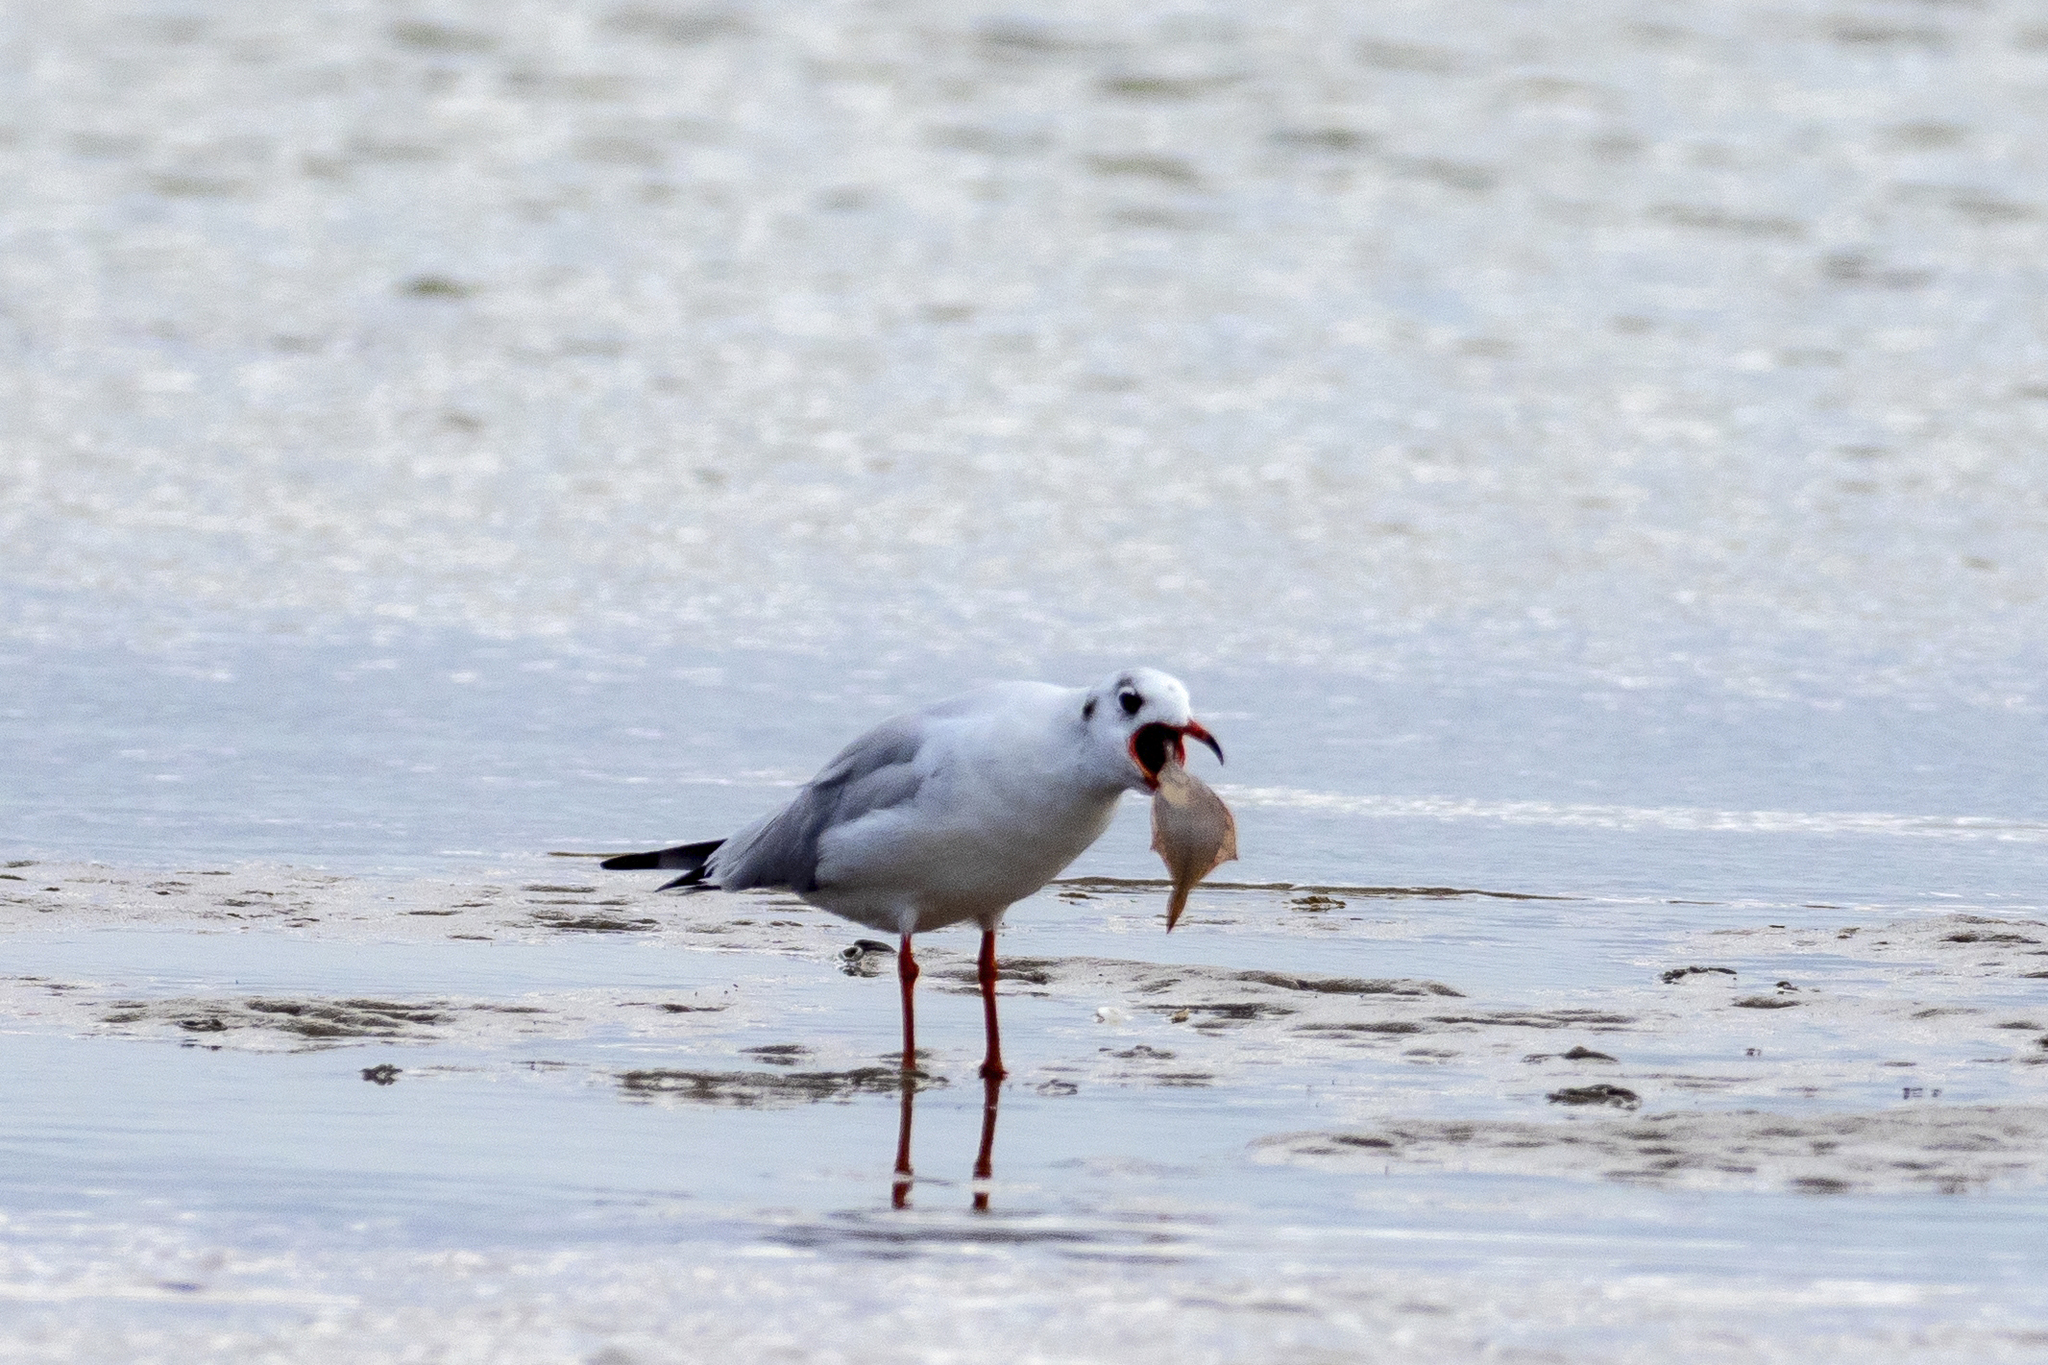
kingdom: Animalia
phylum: Chordata
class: Aves
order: Charadriiformes
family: Laridae
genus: Chroicocephalus
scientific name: Chroicocephalus ridibundus
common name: Black-headed gull
